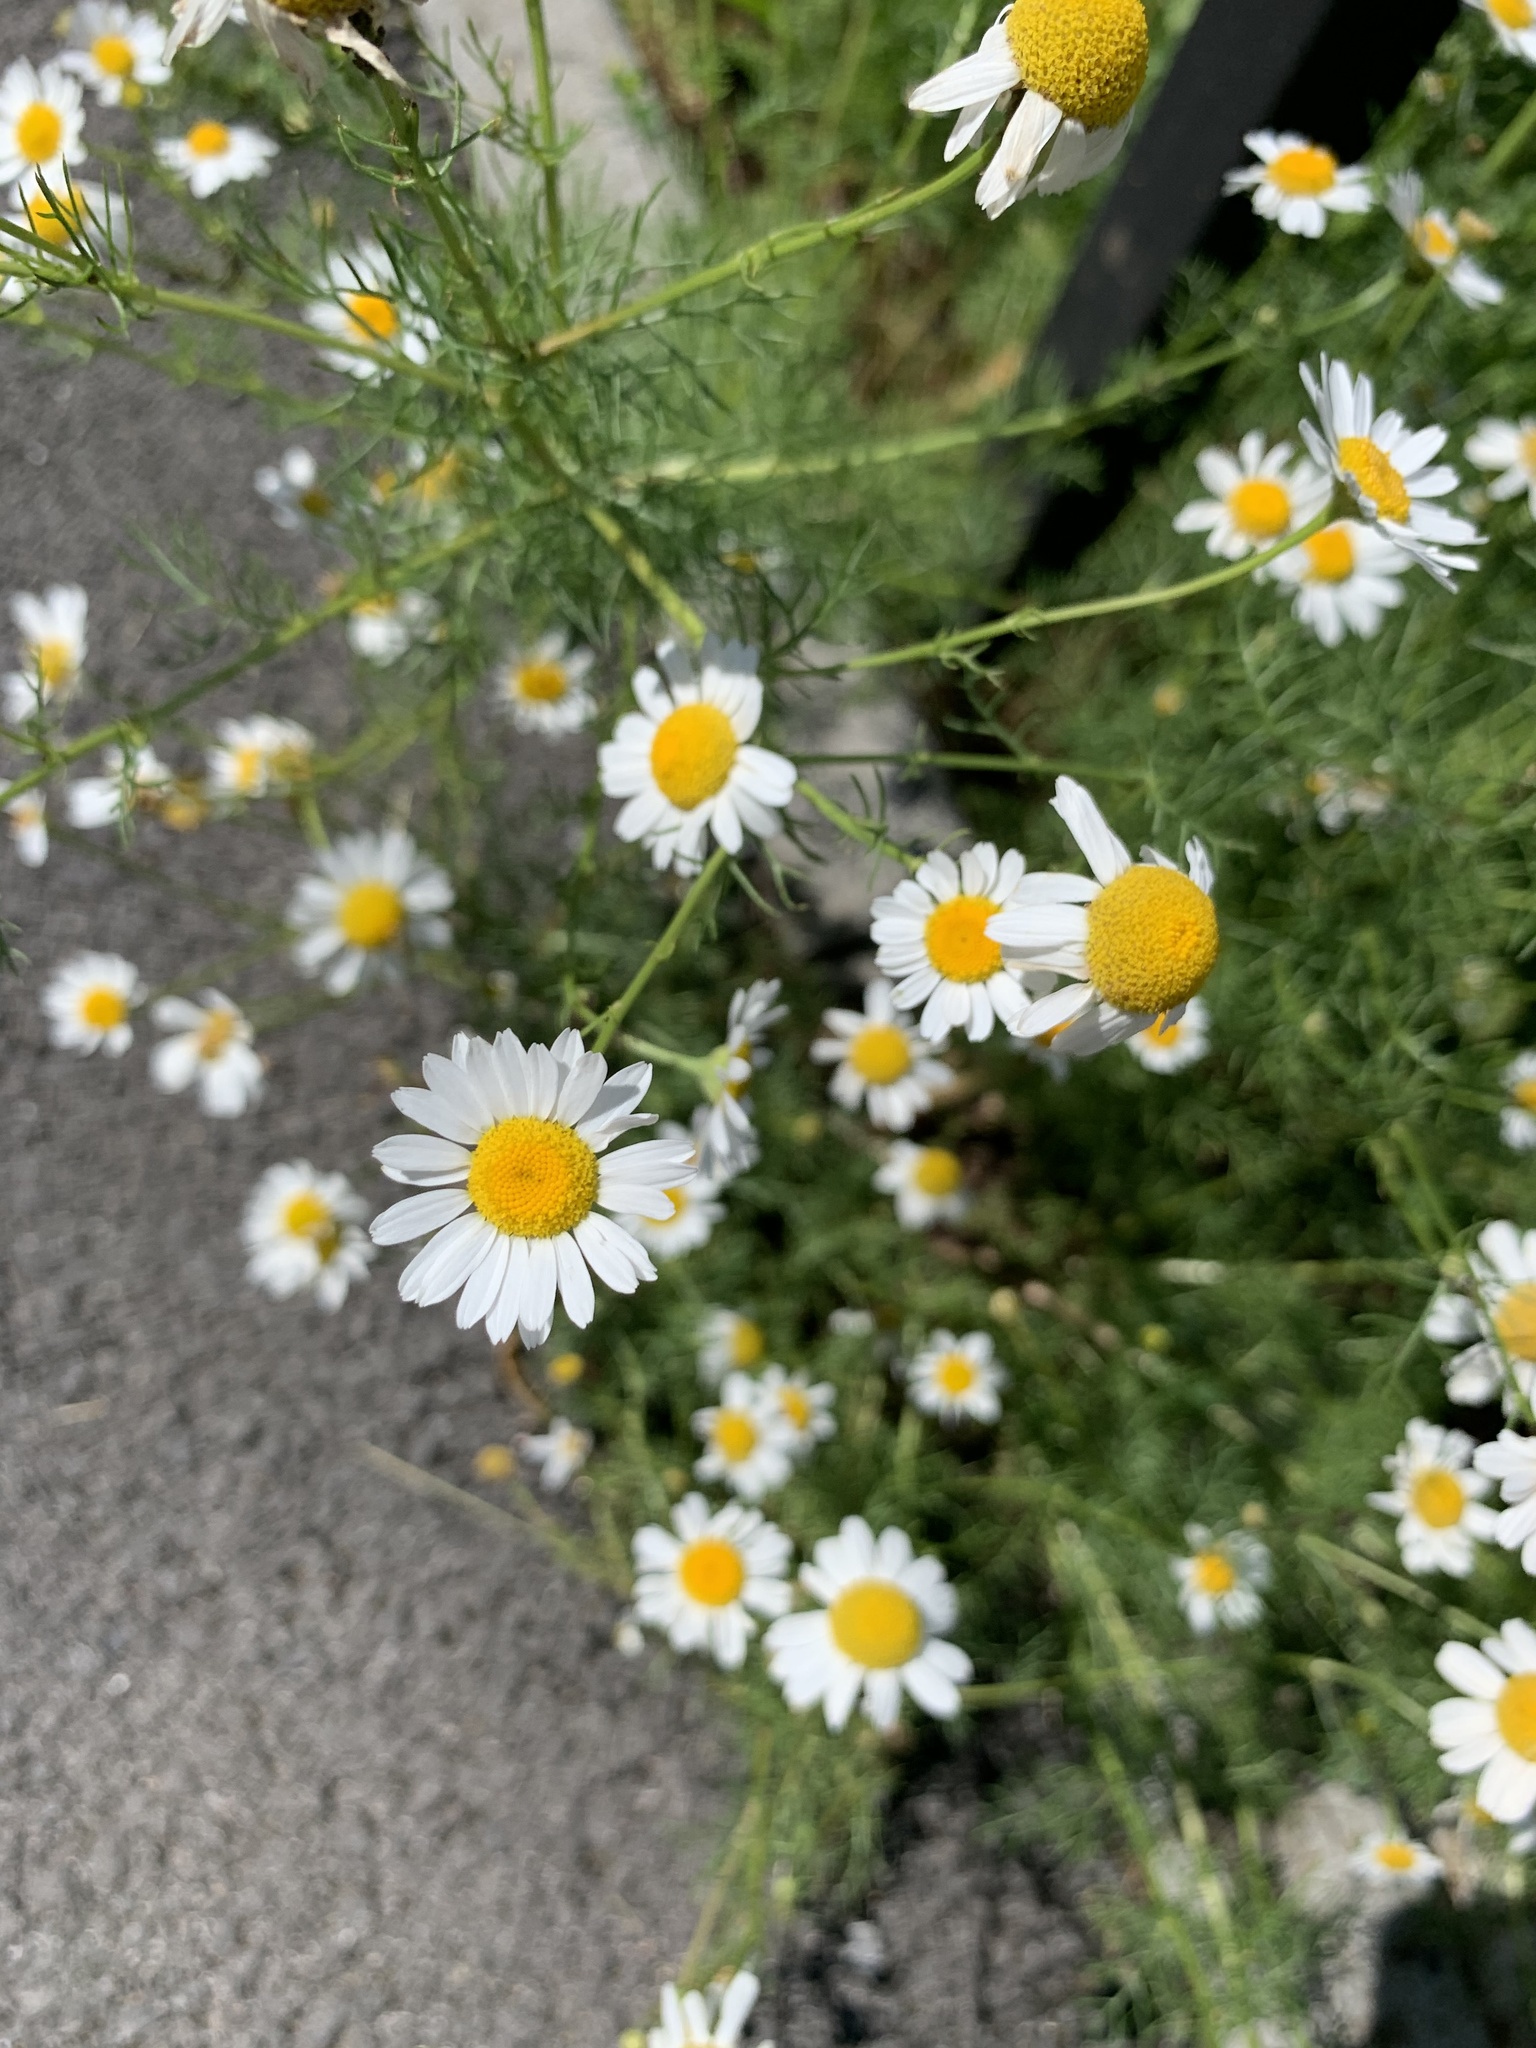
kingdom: Plantae
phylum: Tracheophyta
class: Magnoliopsida
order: Asterales
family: Asteraceae
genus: Tripleurospermum
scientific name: Tripleurospermum inodorum
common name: Scentless mayweed
